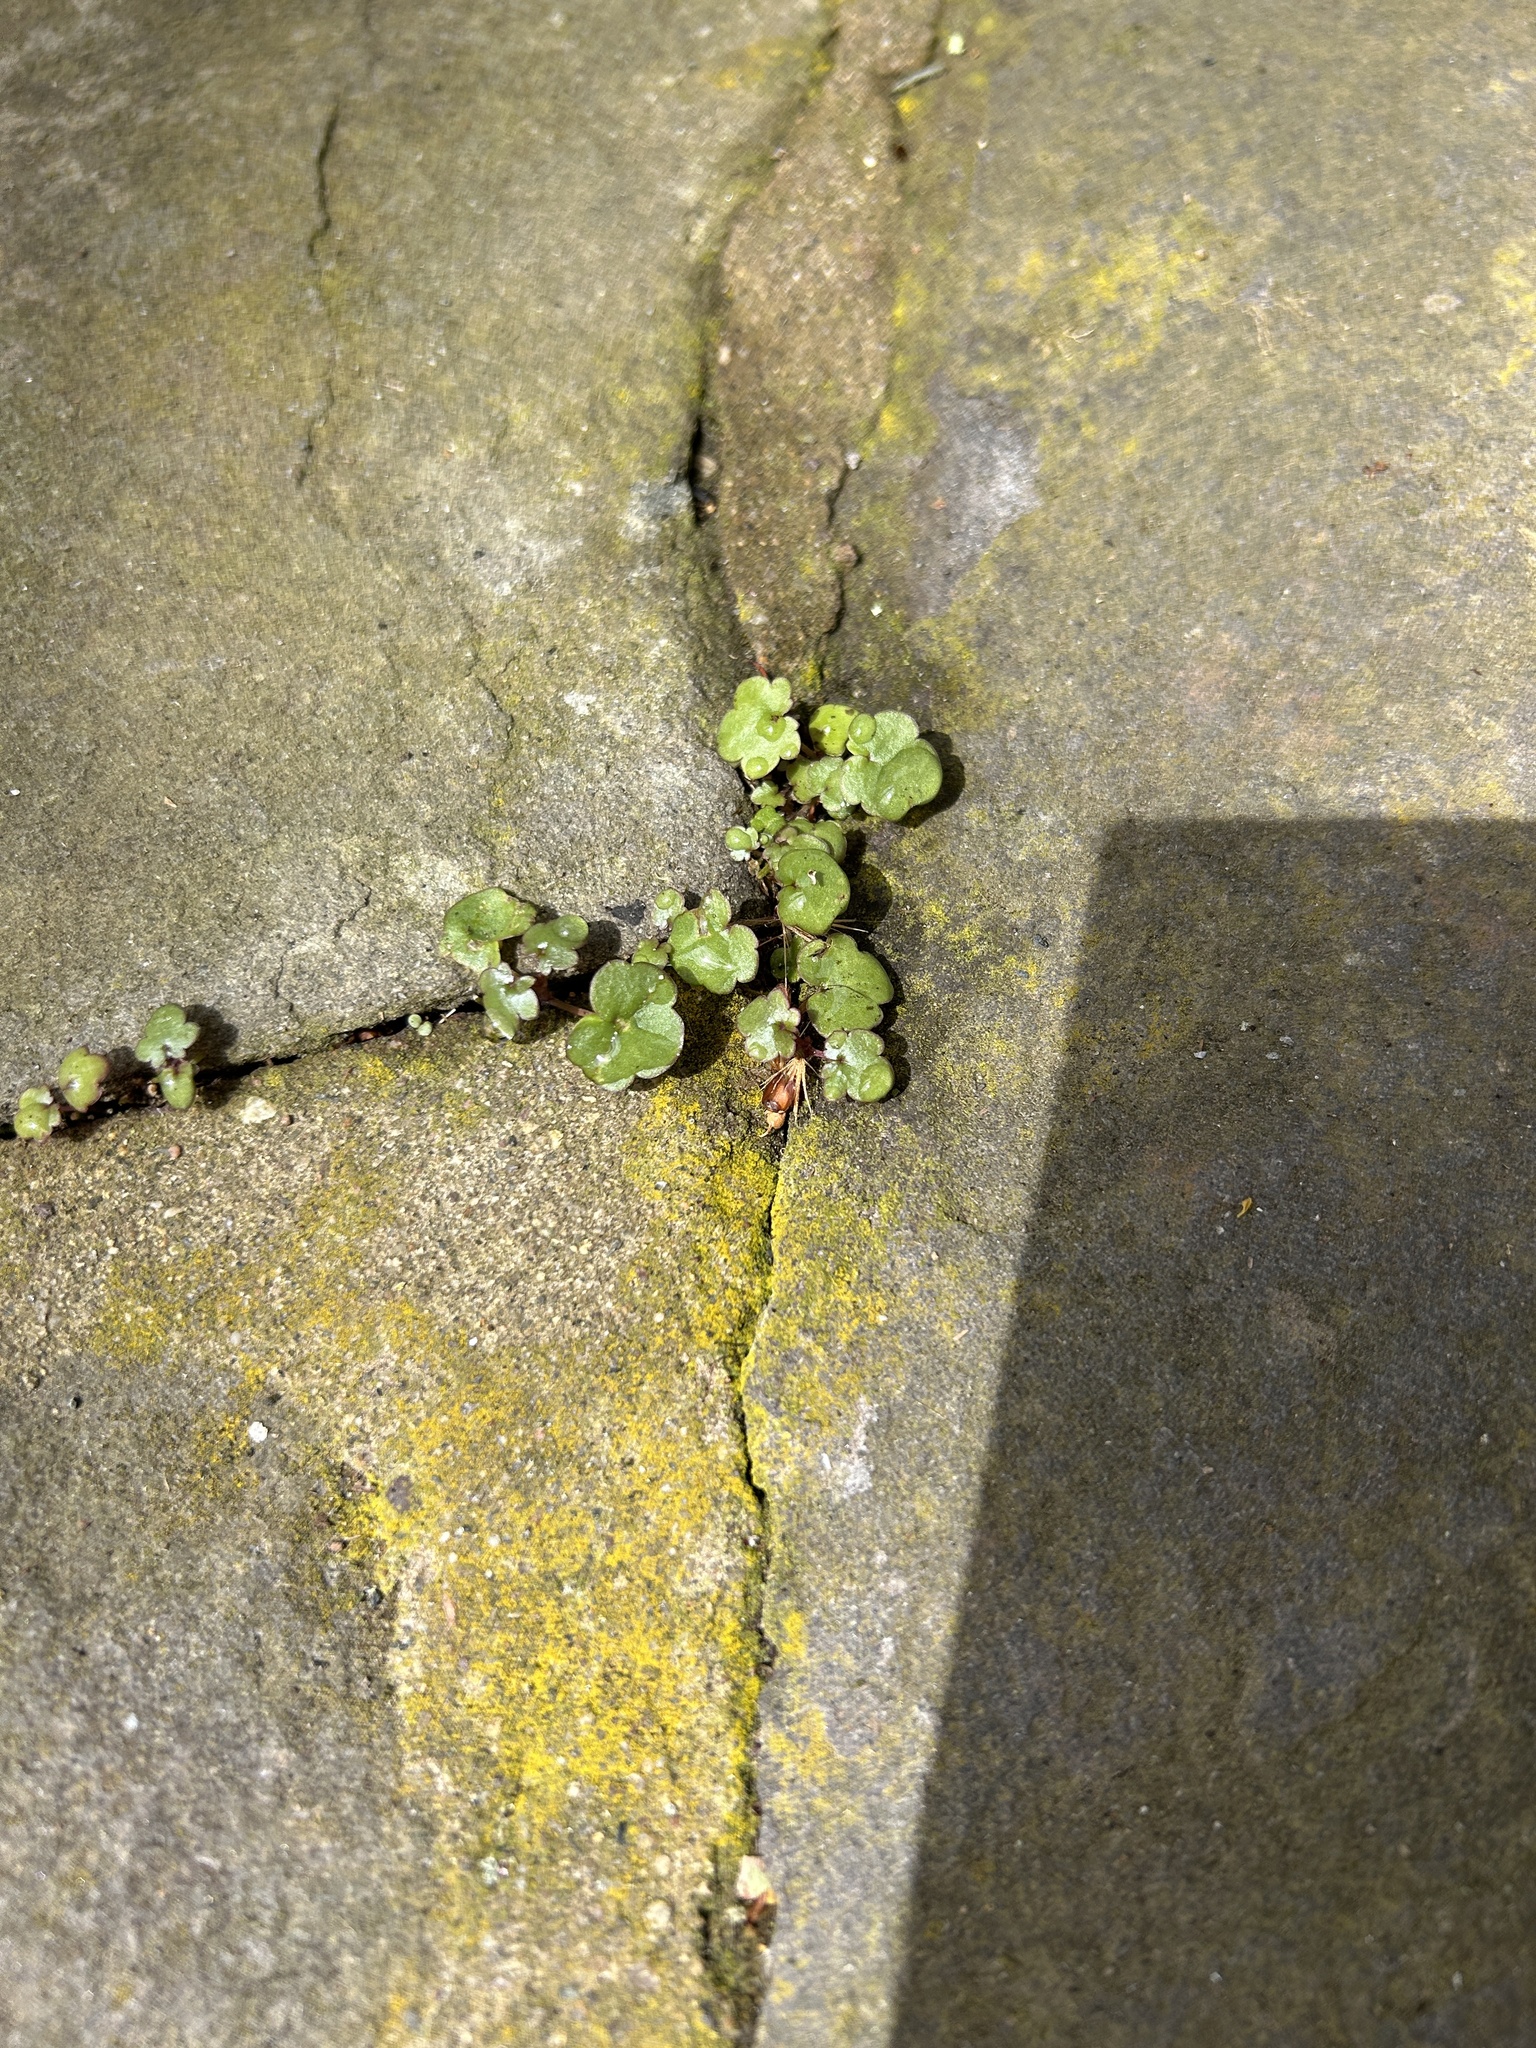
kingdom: Plantae
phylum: Tracheophyta
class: Magnoliopsida
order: Lamiales
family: Plantaginaceae
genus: Cymbalaria
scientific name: Cymbalaria muralis
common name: Ivy-leaved toadflax
